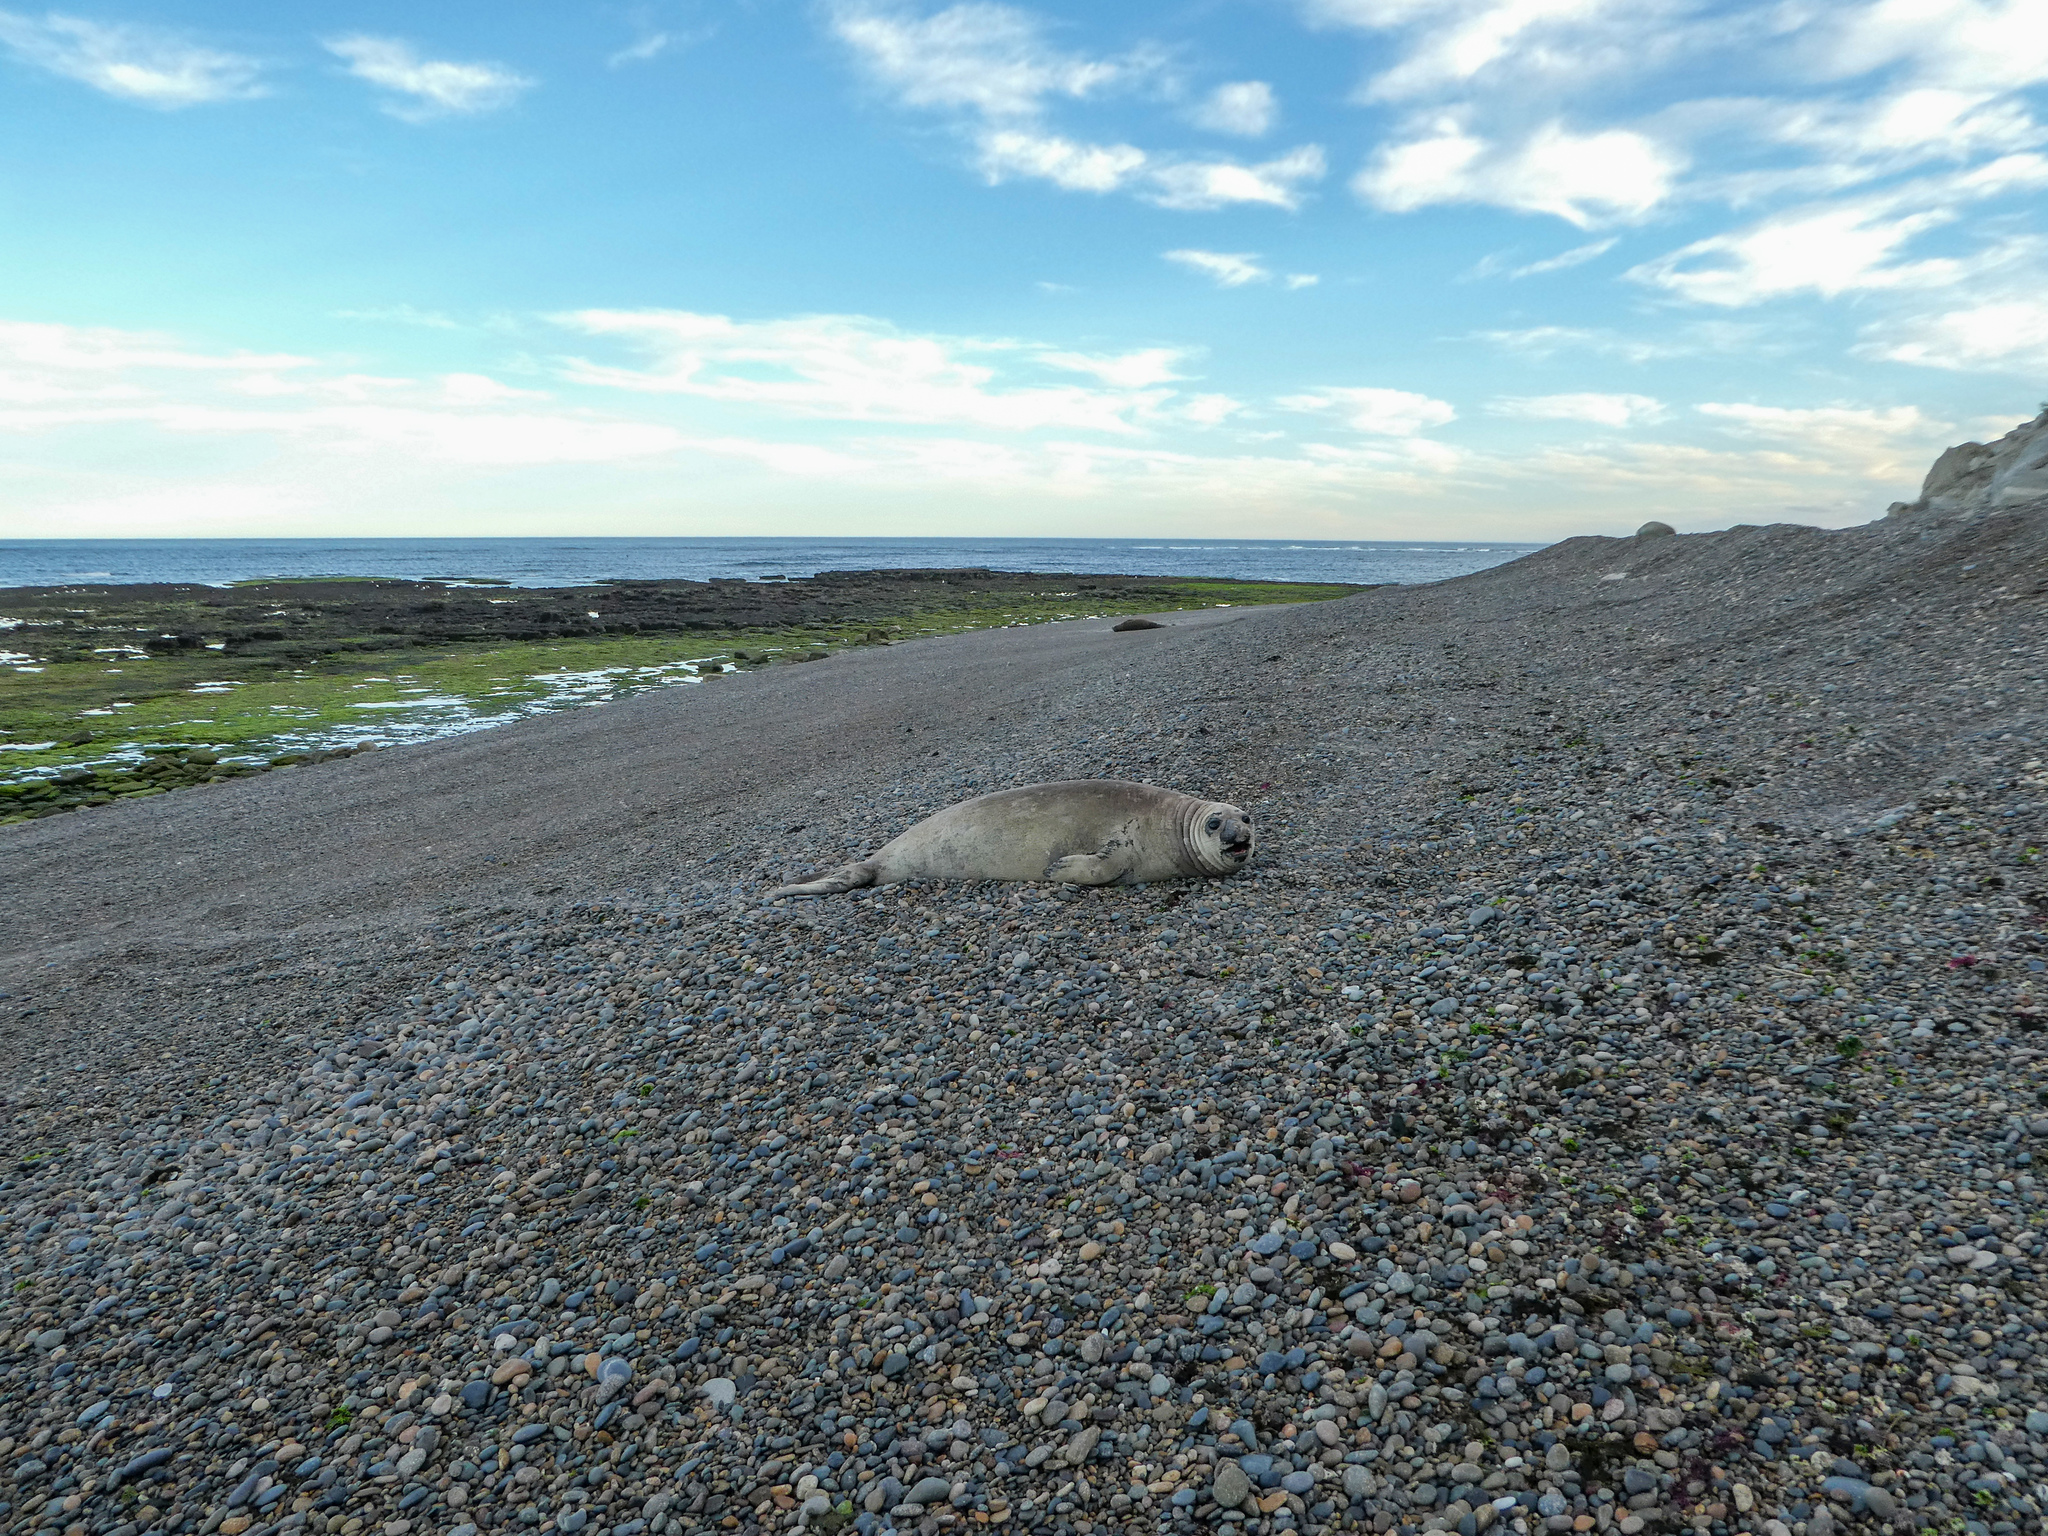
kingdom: Animalia
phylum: Chordata
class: Mammalia
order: Carnivora
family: Phocidae
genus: Mirounga
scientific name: Mirounga leonina
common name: Southern elephant seal
